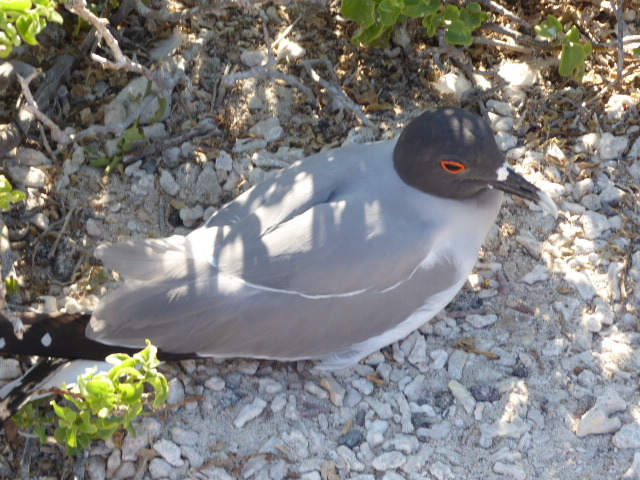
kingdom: Animalia
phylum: Chordata
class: Aves
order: Charadriiformes
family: Laridae
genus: Creagrus
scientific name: Creagrus furcatus
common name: Swallow-tailed gull
